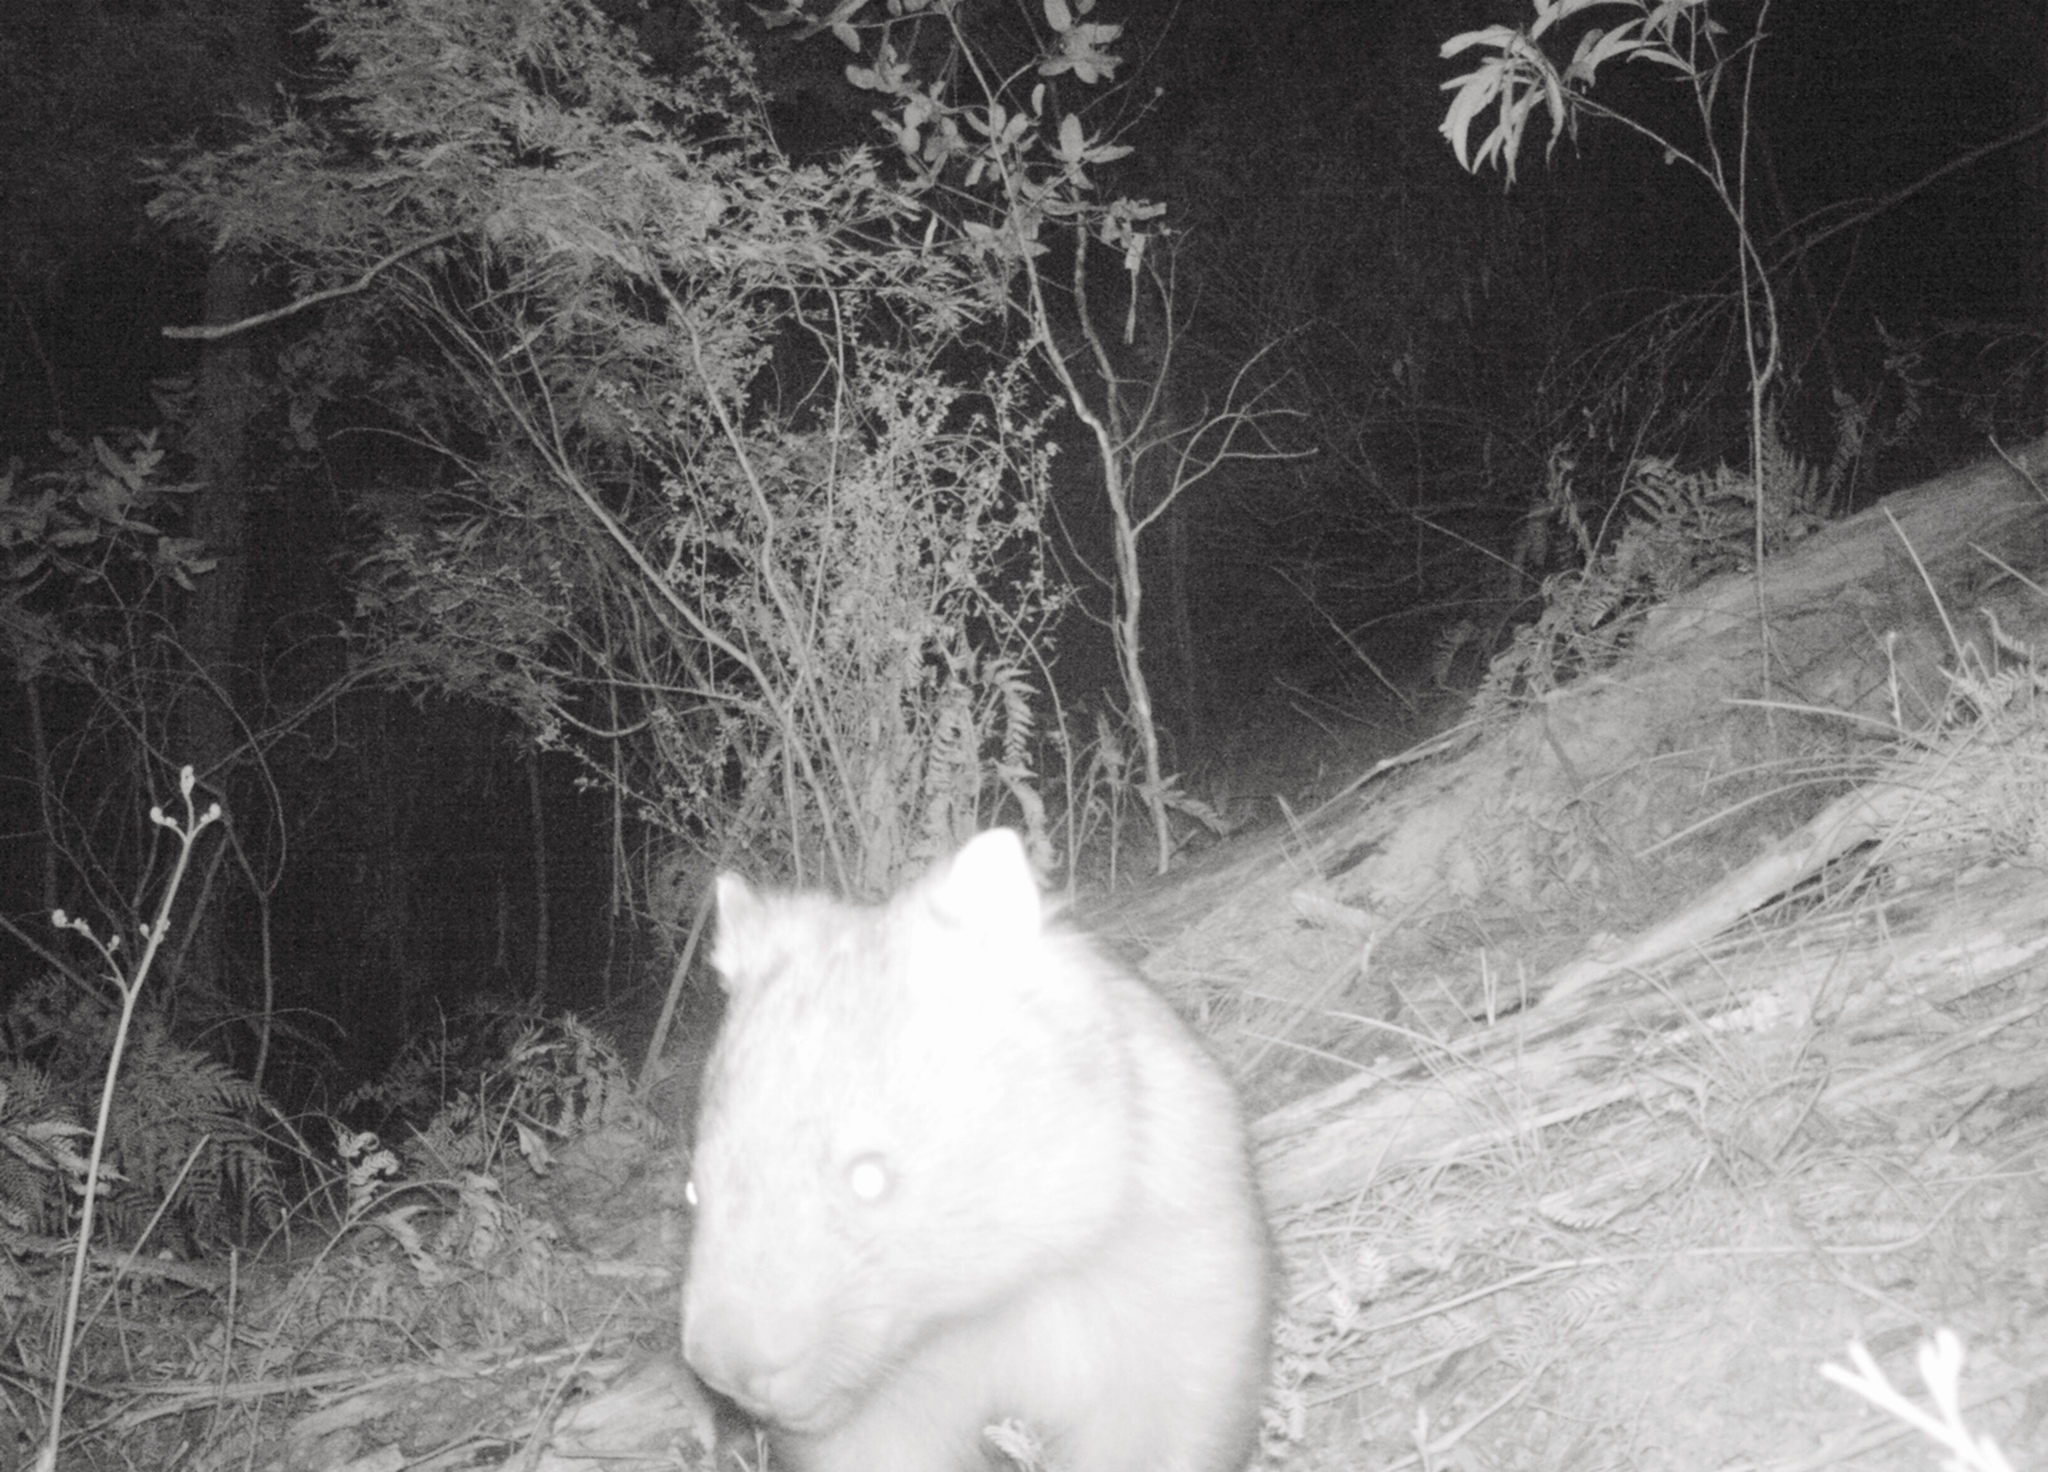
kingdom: Animalia
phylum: Chordata
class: Mammalia
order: Diprotodontia
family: Vombatidae
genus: Vombatus
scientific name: Vombatus ursinus
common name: Common wombat
